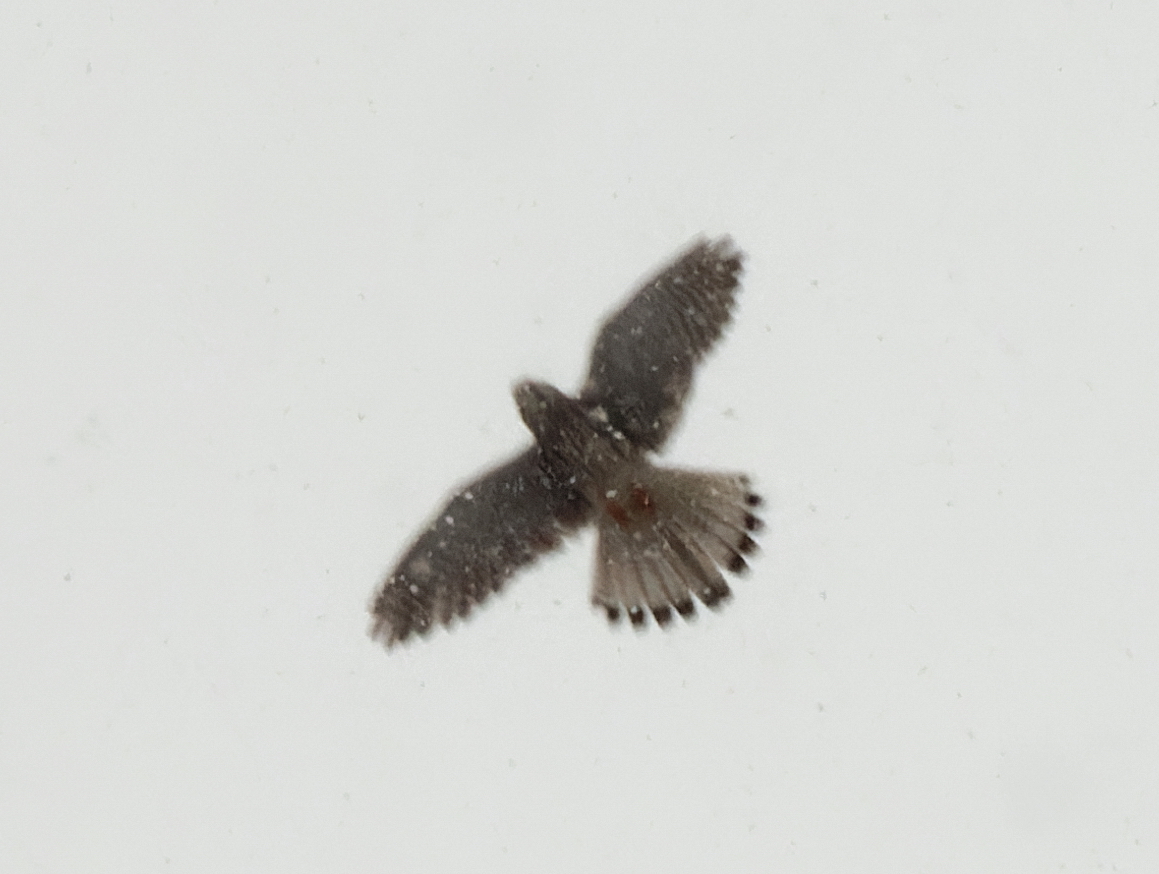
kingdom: Animalia
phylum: Chordata
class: Aves
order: Falconiformes
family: Falconidae
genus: Falco
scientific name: Falco tinnunculus
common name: Common kestrel
